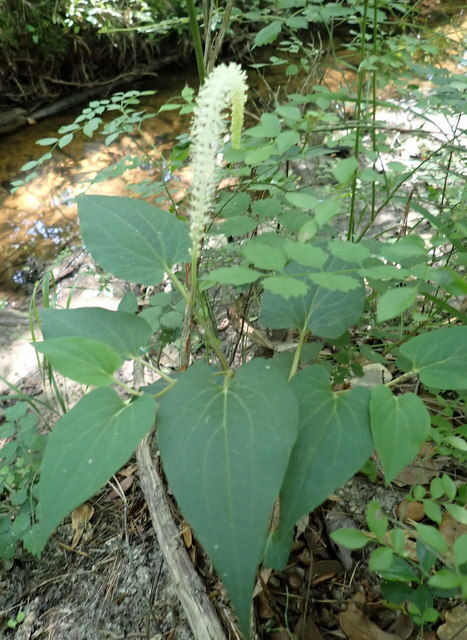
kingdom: Plantae
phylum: Tracheophyta
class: Magnoliopsida
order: Piperales
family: Saururaceae
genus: Saururus
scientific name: Saururus cernuus
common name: Lizard's-tail
